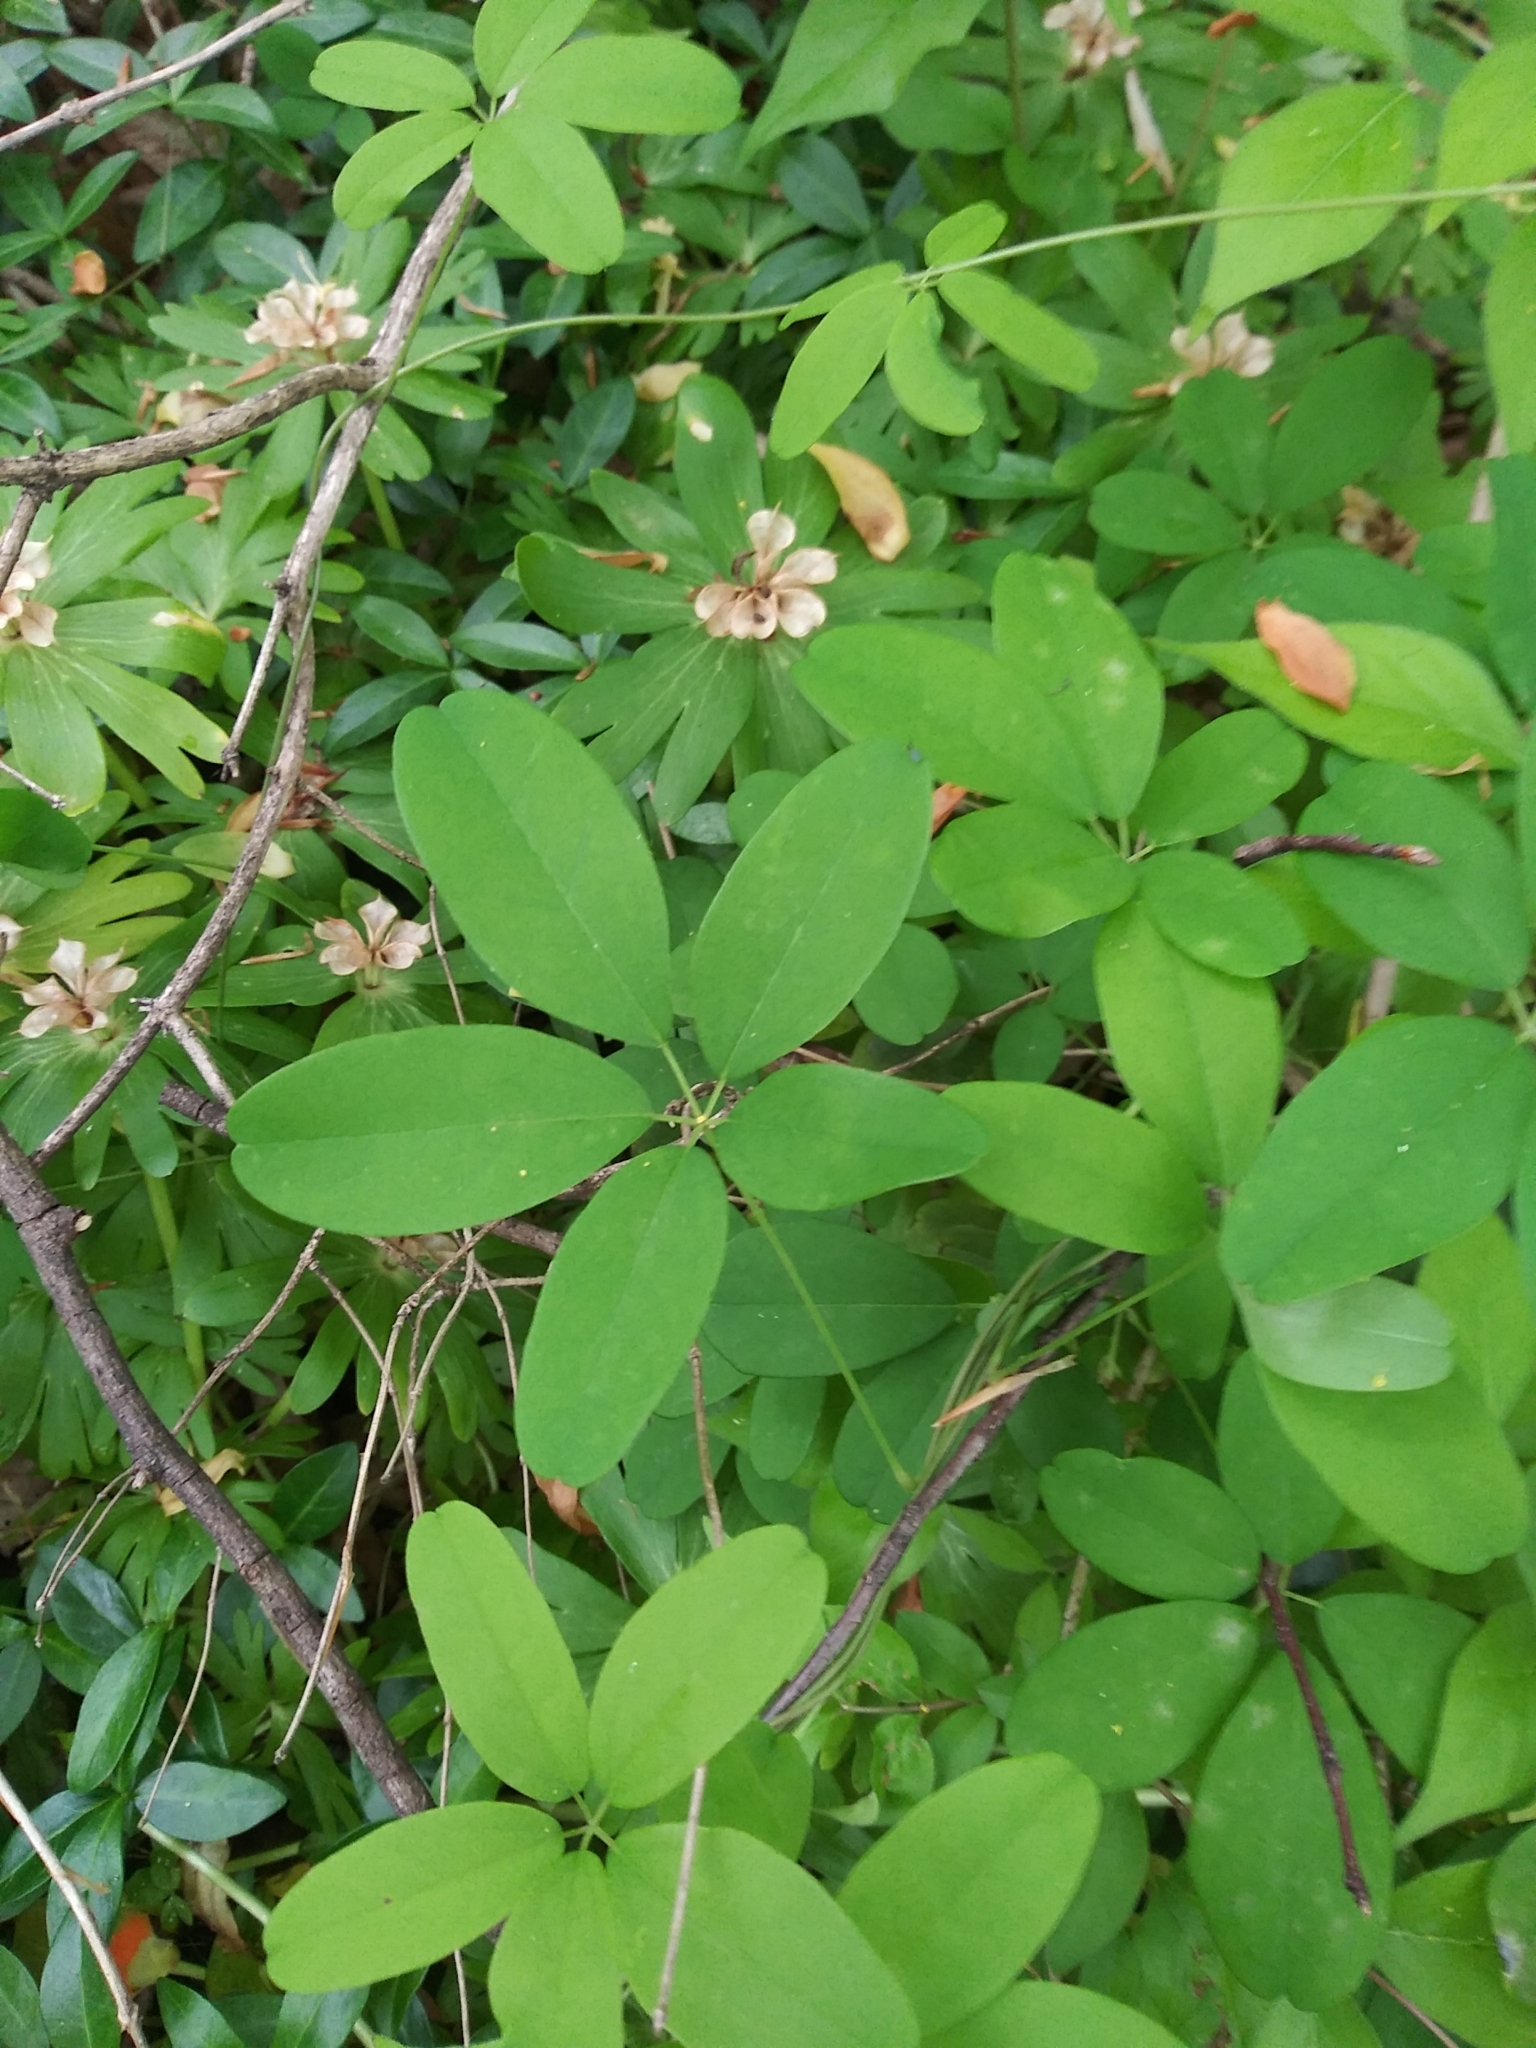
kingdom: Plantae
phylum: Tracheophyta
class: Magnoliopsida
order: Ranunculales
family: Lardizabalaceae
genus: Akebia
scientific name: Akebia quinata
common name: Five-leaf akebia
